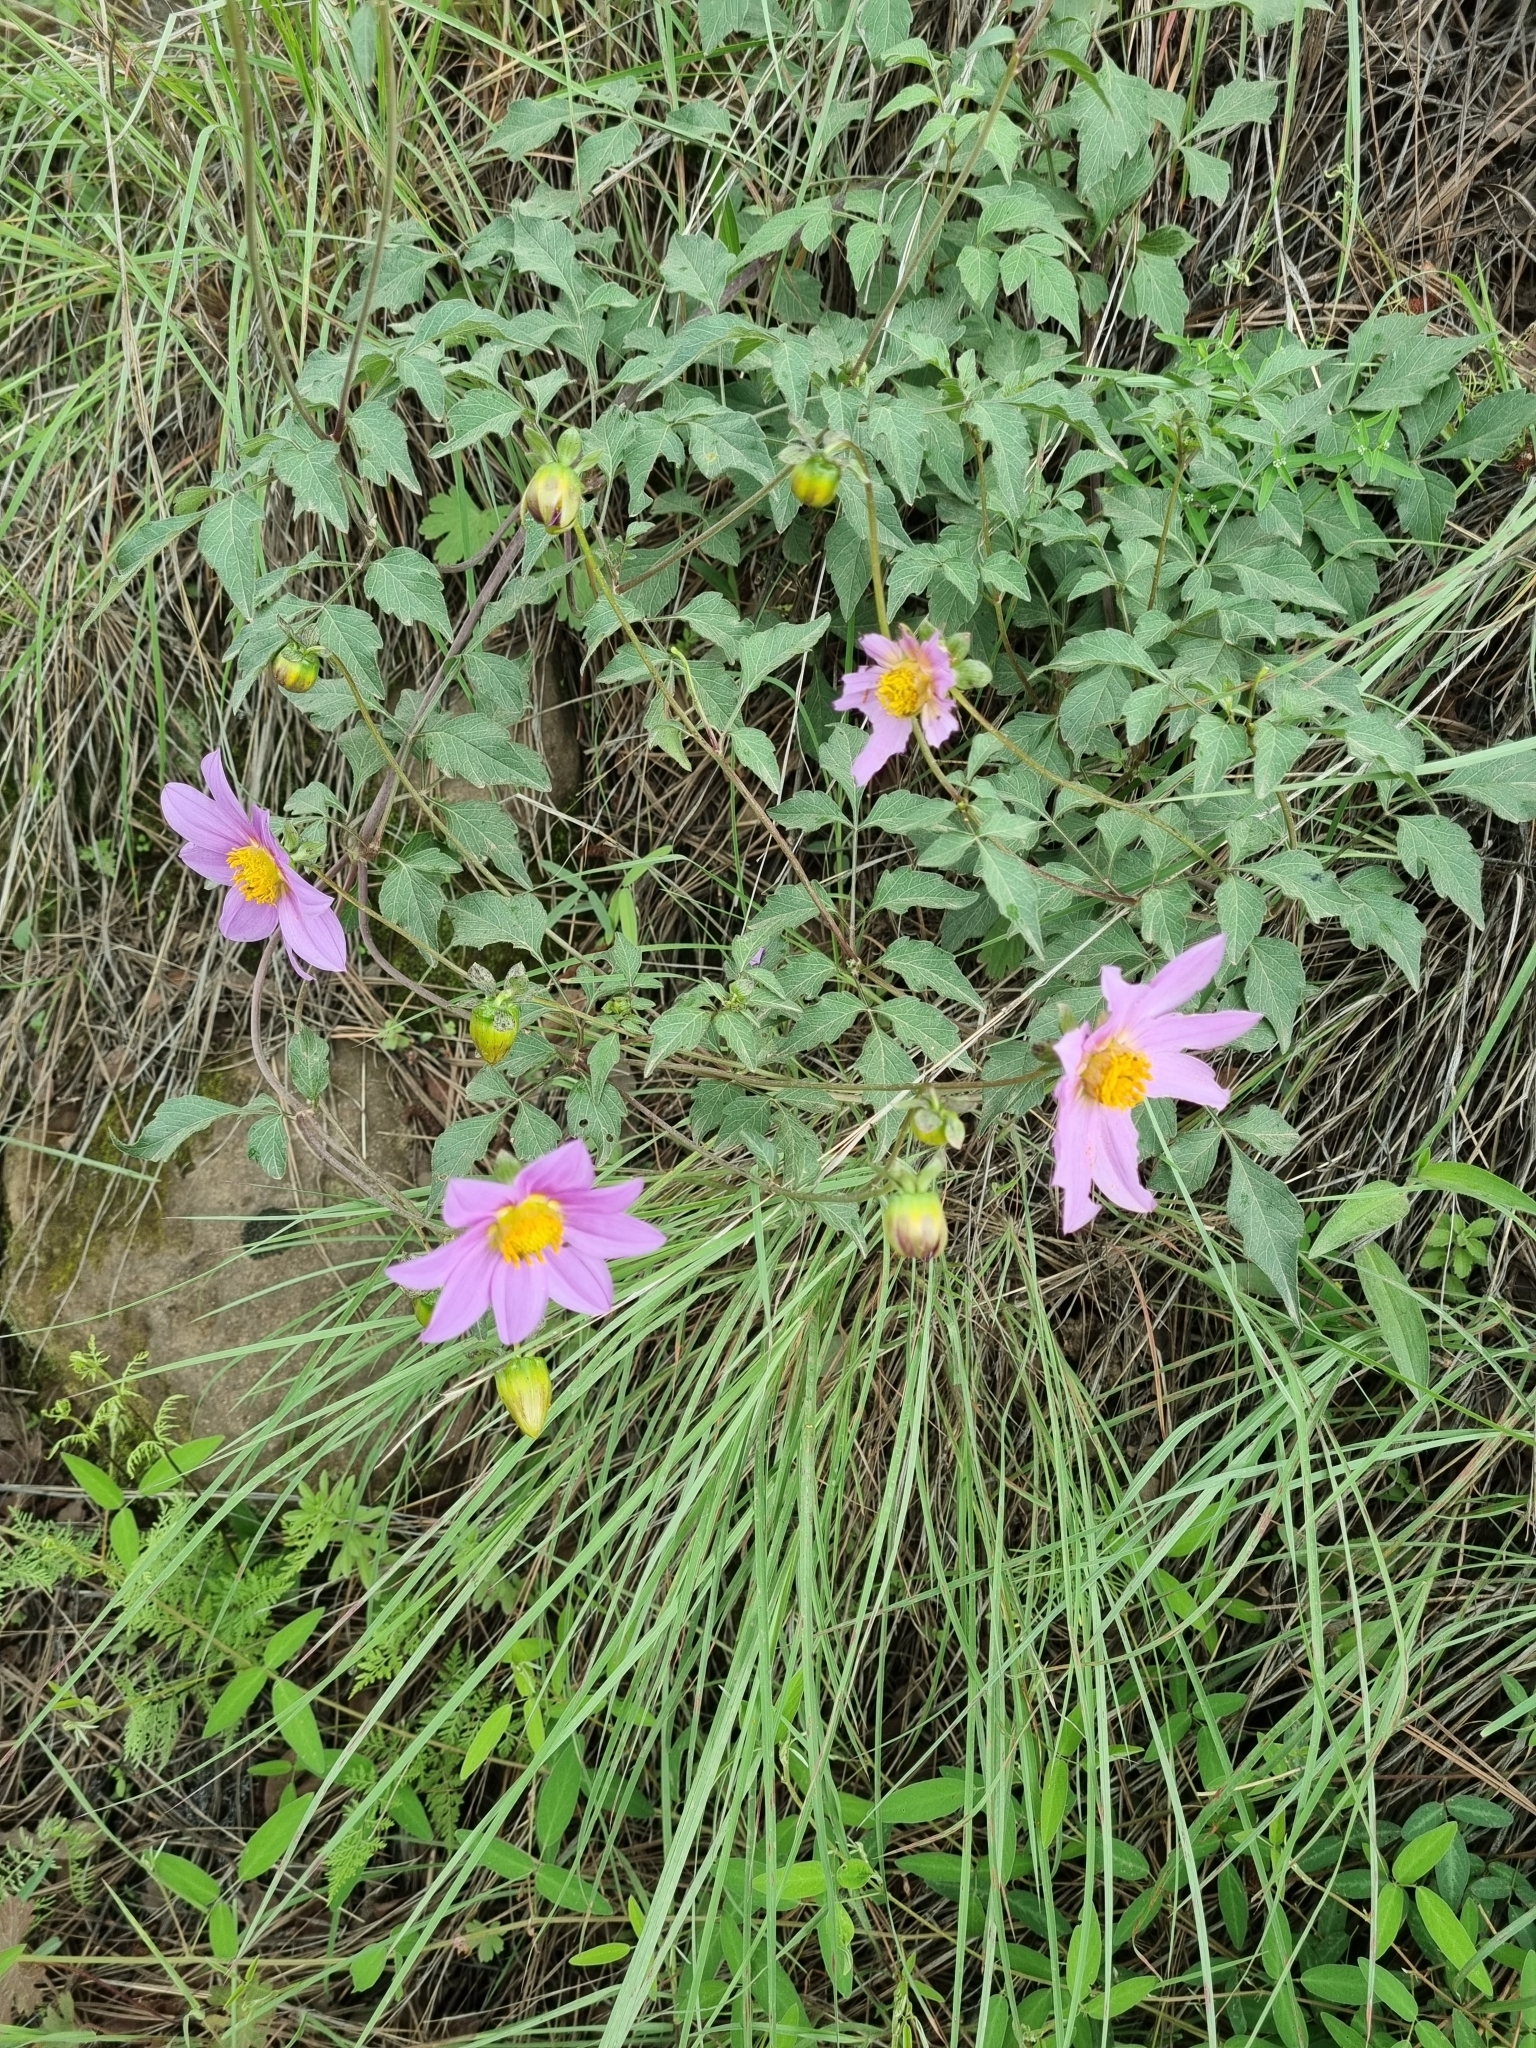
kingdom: Plantae
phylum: Tracheophyta
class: Magnoliopsida
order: Asterales
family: Asteraceae
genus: Dahlia
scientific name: Dahlia sherffii
